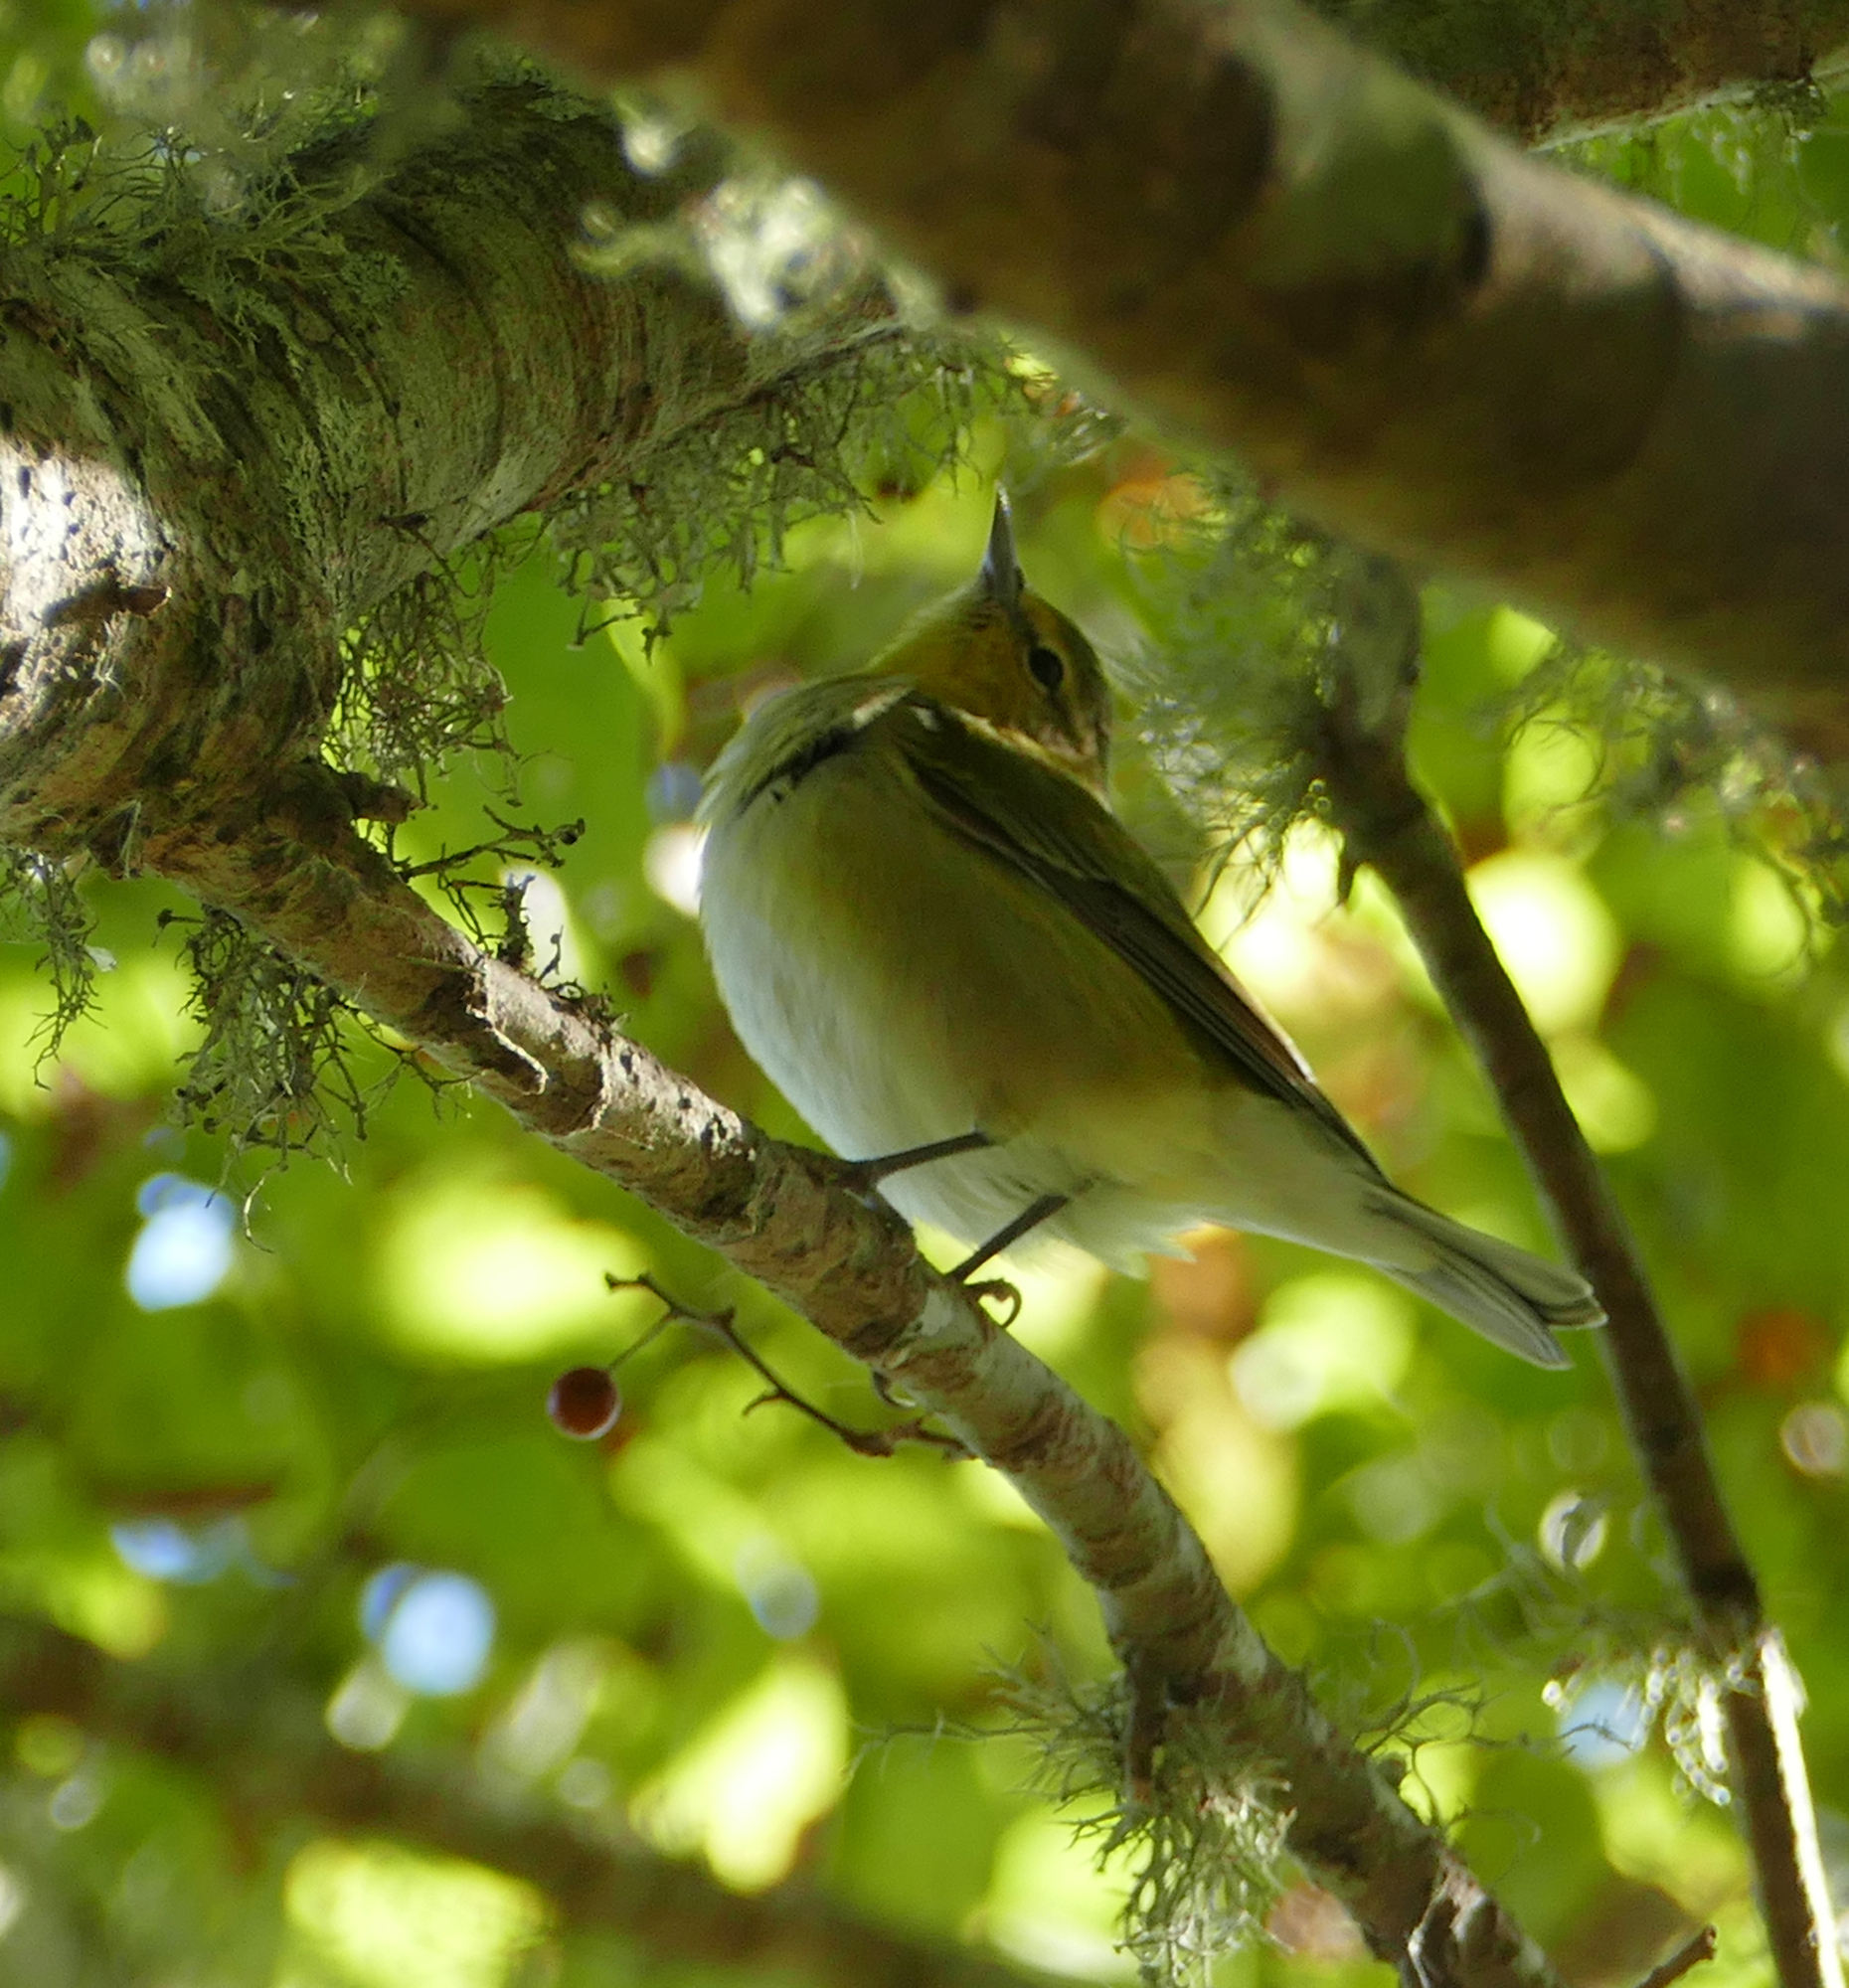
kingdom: Animalia
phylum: Chordata
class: Aves
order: Passeriformes
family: Parulidae
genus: Leiothlypis
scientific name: Leiothlypis peregrina
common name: Tennessee warbler
